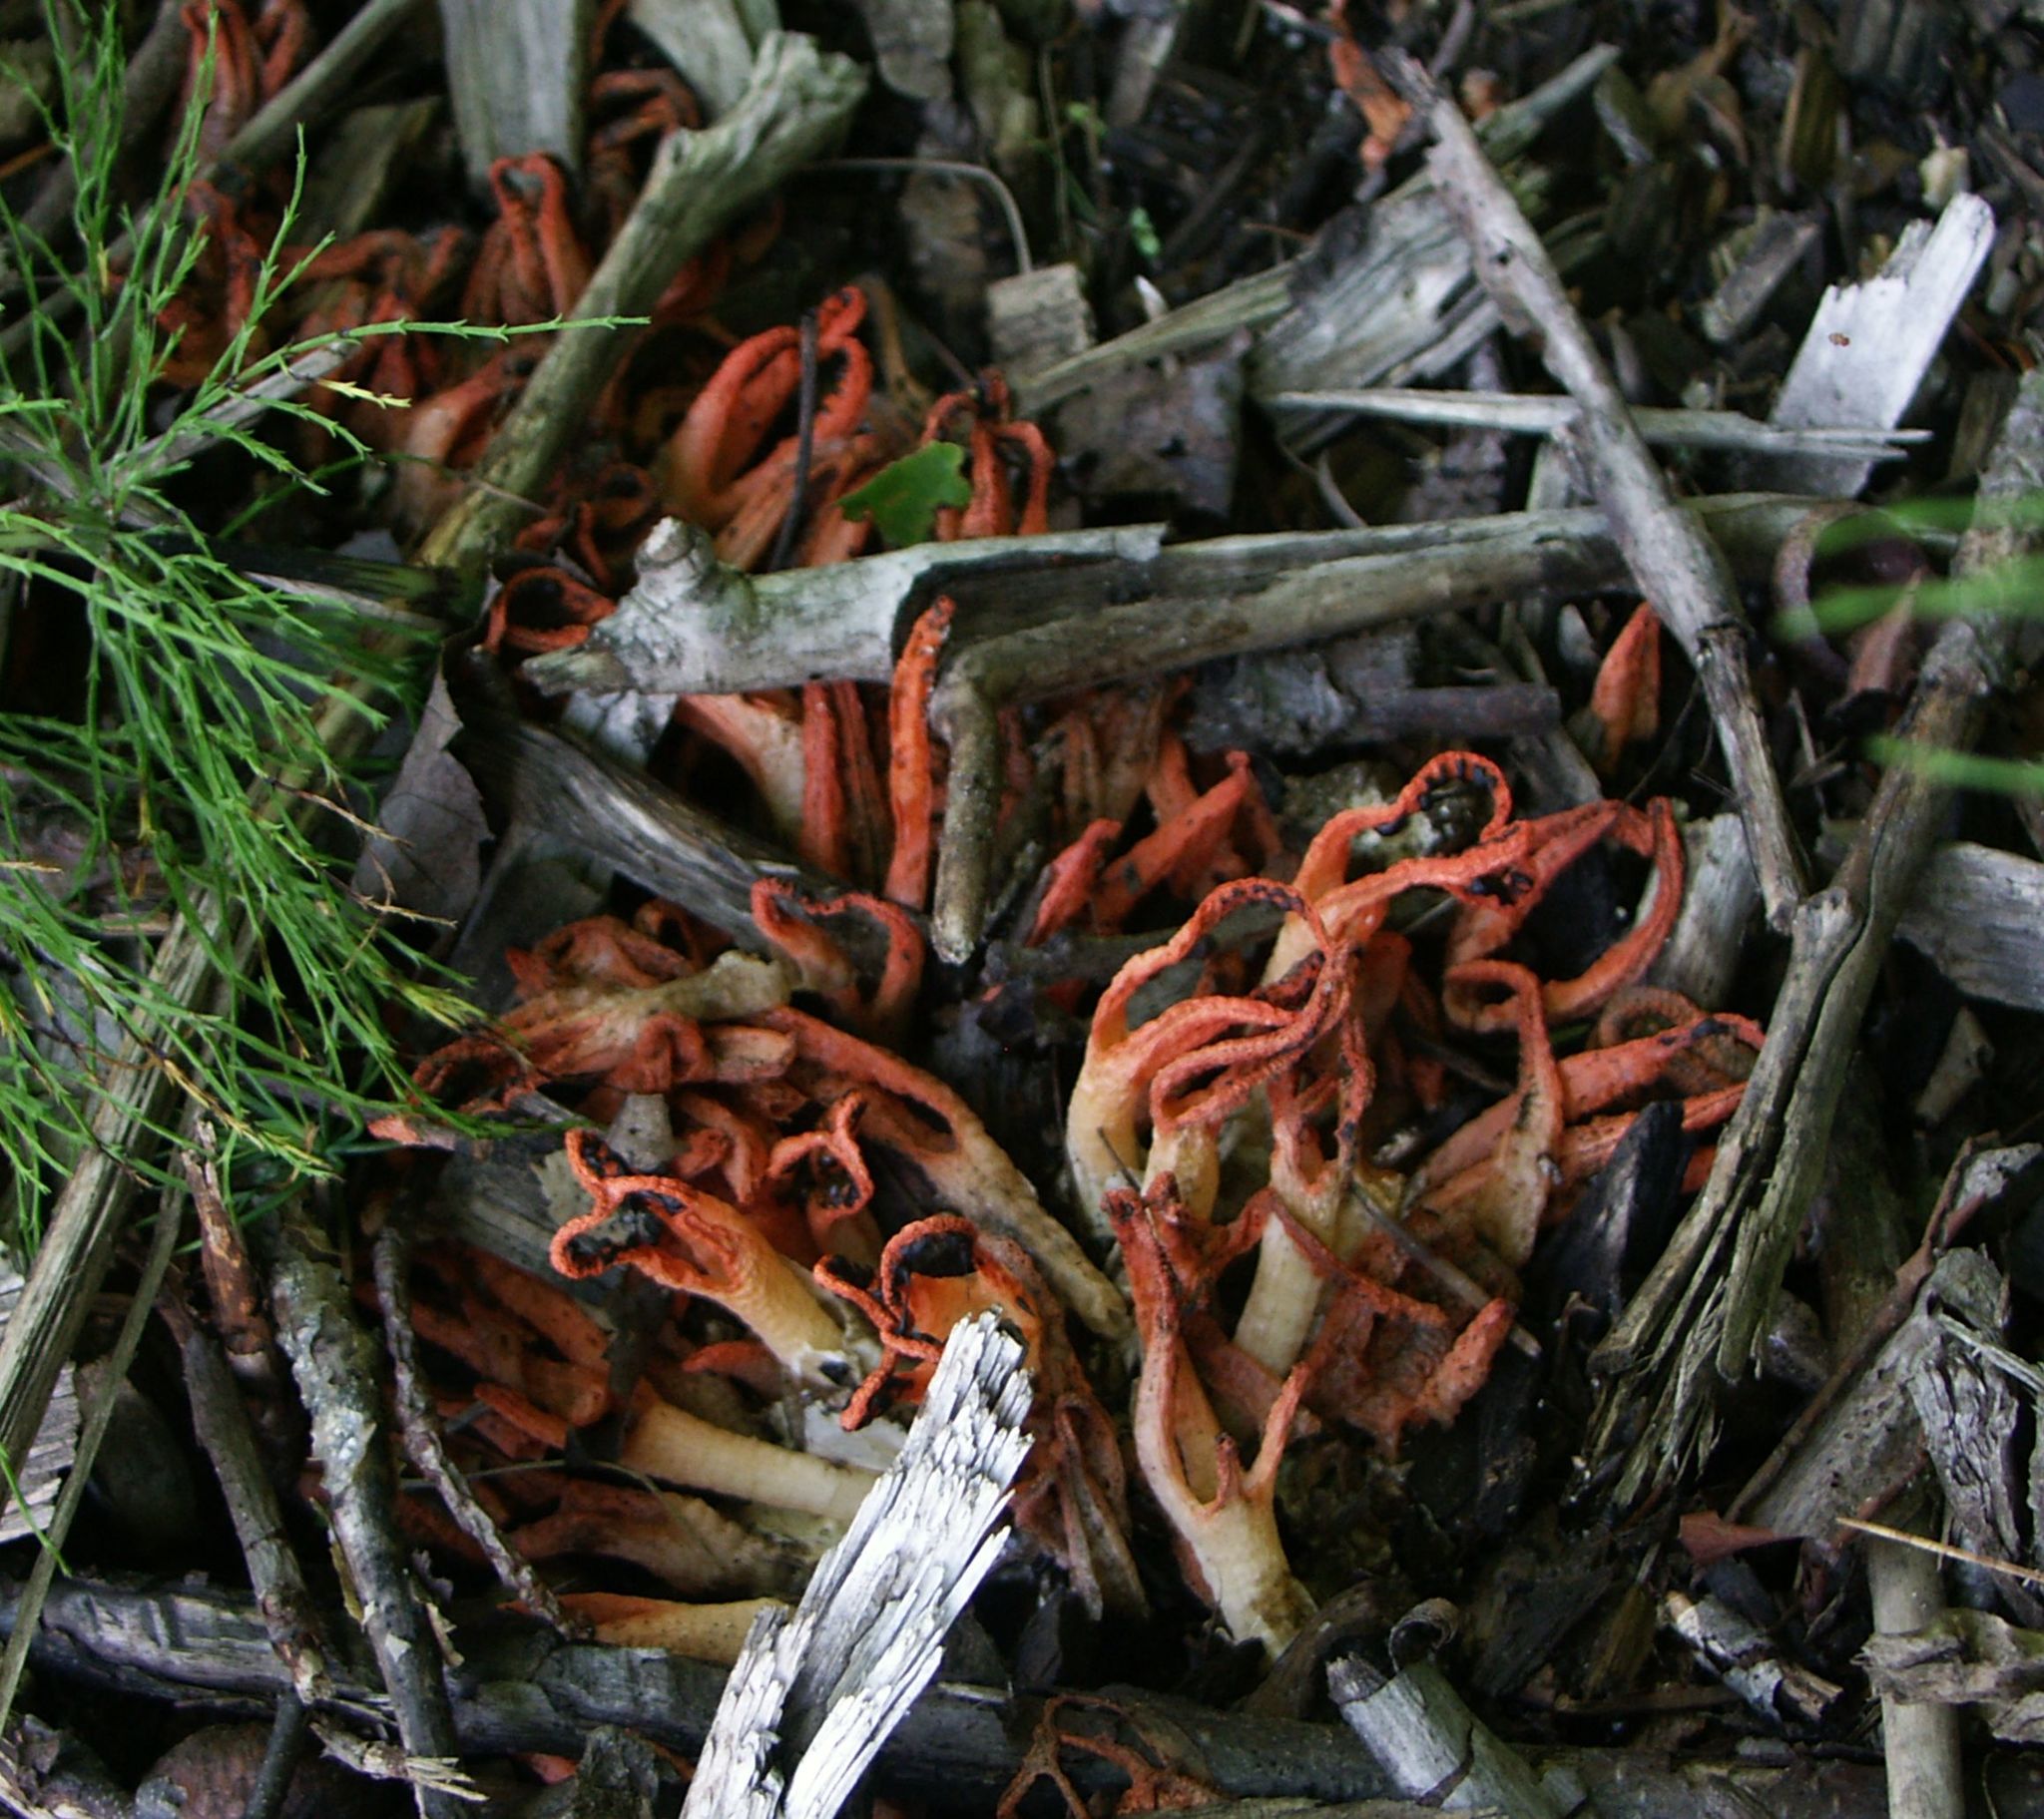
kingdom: Fungi
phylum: Basidiomycota
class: Agaricomycetes
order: Phallales
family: Phallaceae
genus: Pseudocolus
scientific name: Pseudocolus fusiformis
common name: Stinky squid
